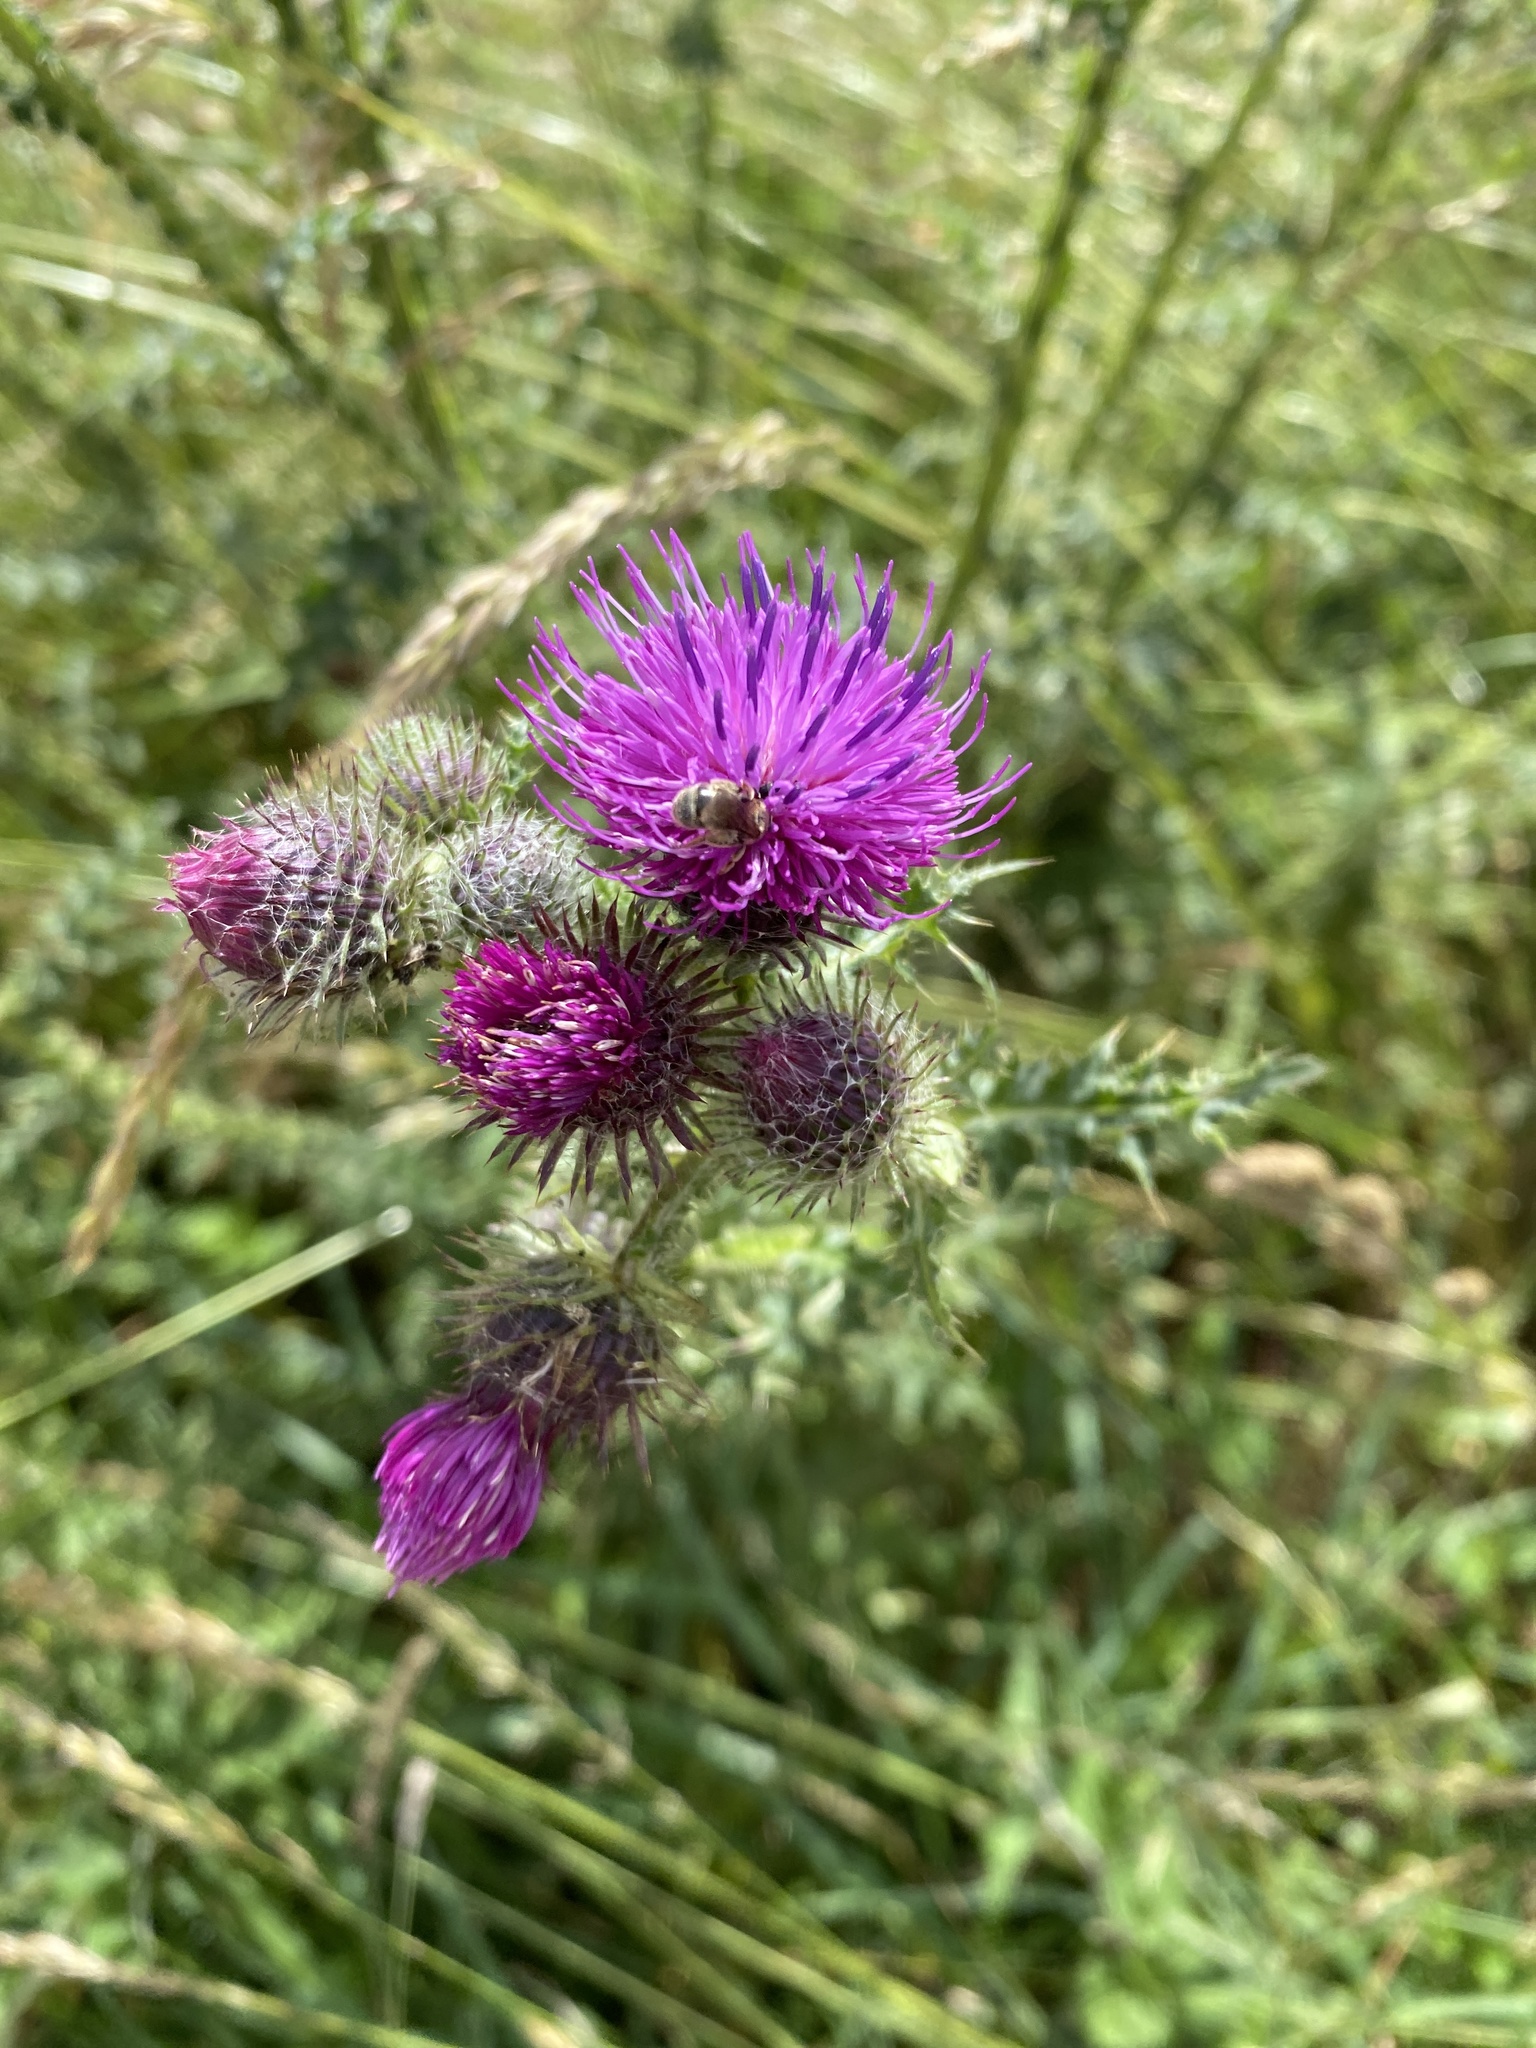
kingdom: Plantae
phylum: Tracheophyta
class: Magnoliopsida
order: Asterales
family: Asteraceae
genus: Carduus
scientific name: Carduus crispus
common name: Welted thistle
